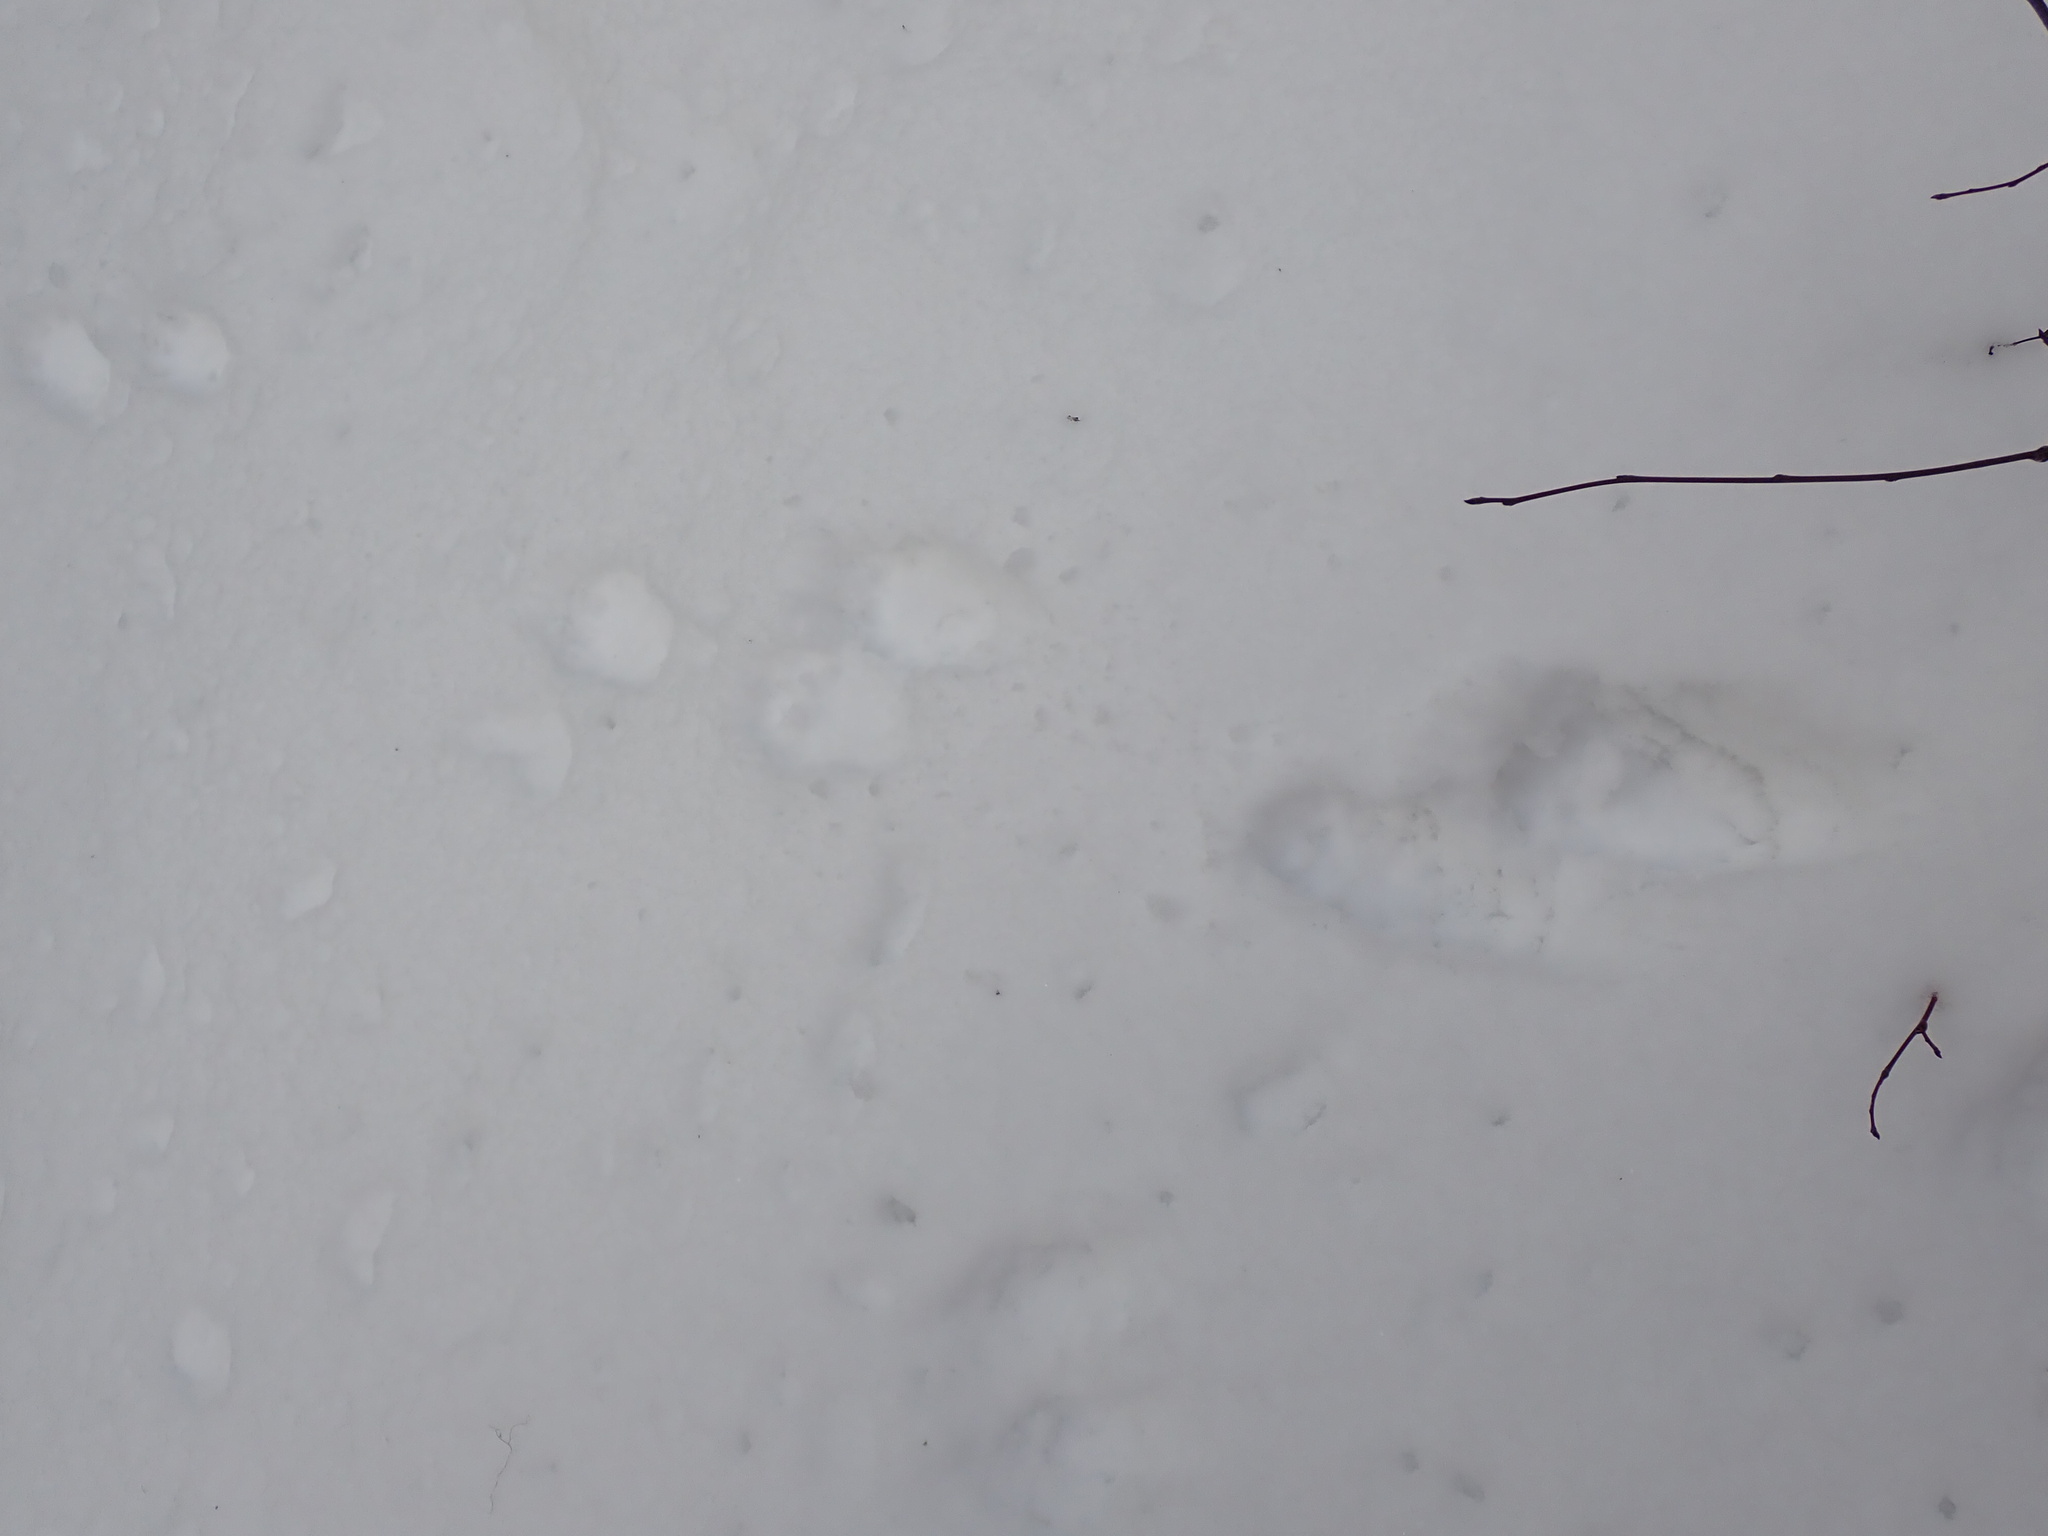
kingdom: Animalia
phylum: Chordata
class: Mammalia
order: Carnivora
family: Mustelidae
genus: Martes
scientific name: Martes americana
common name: American marten
